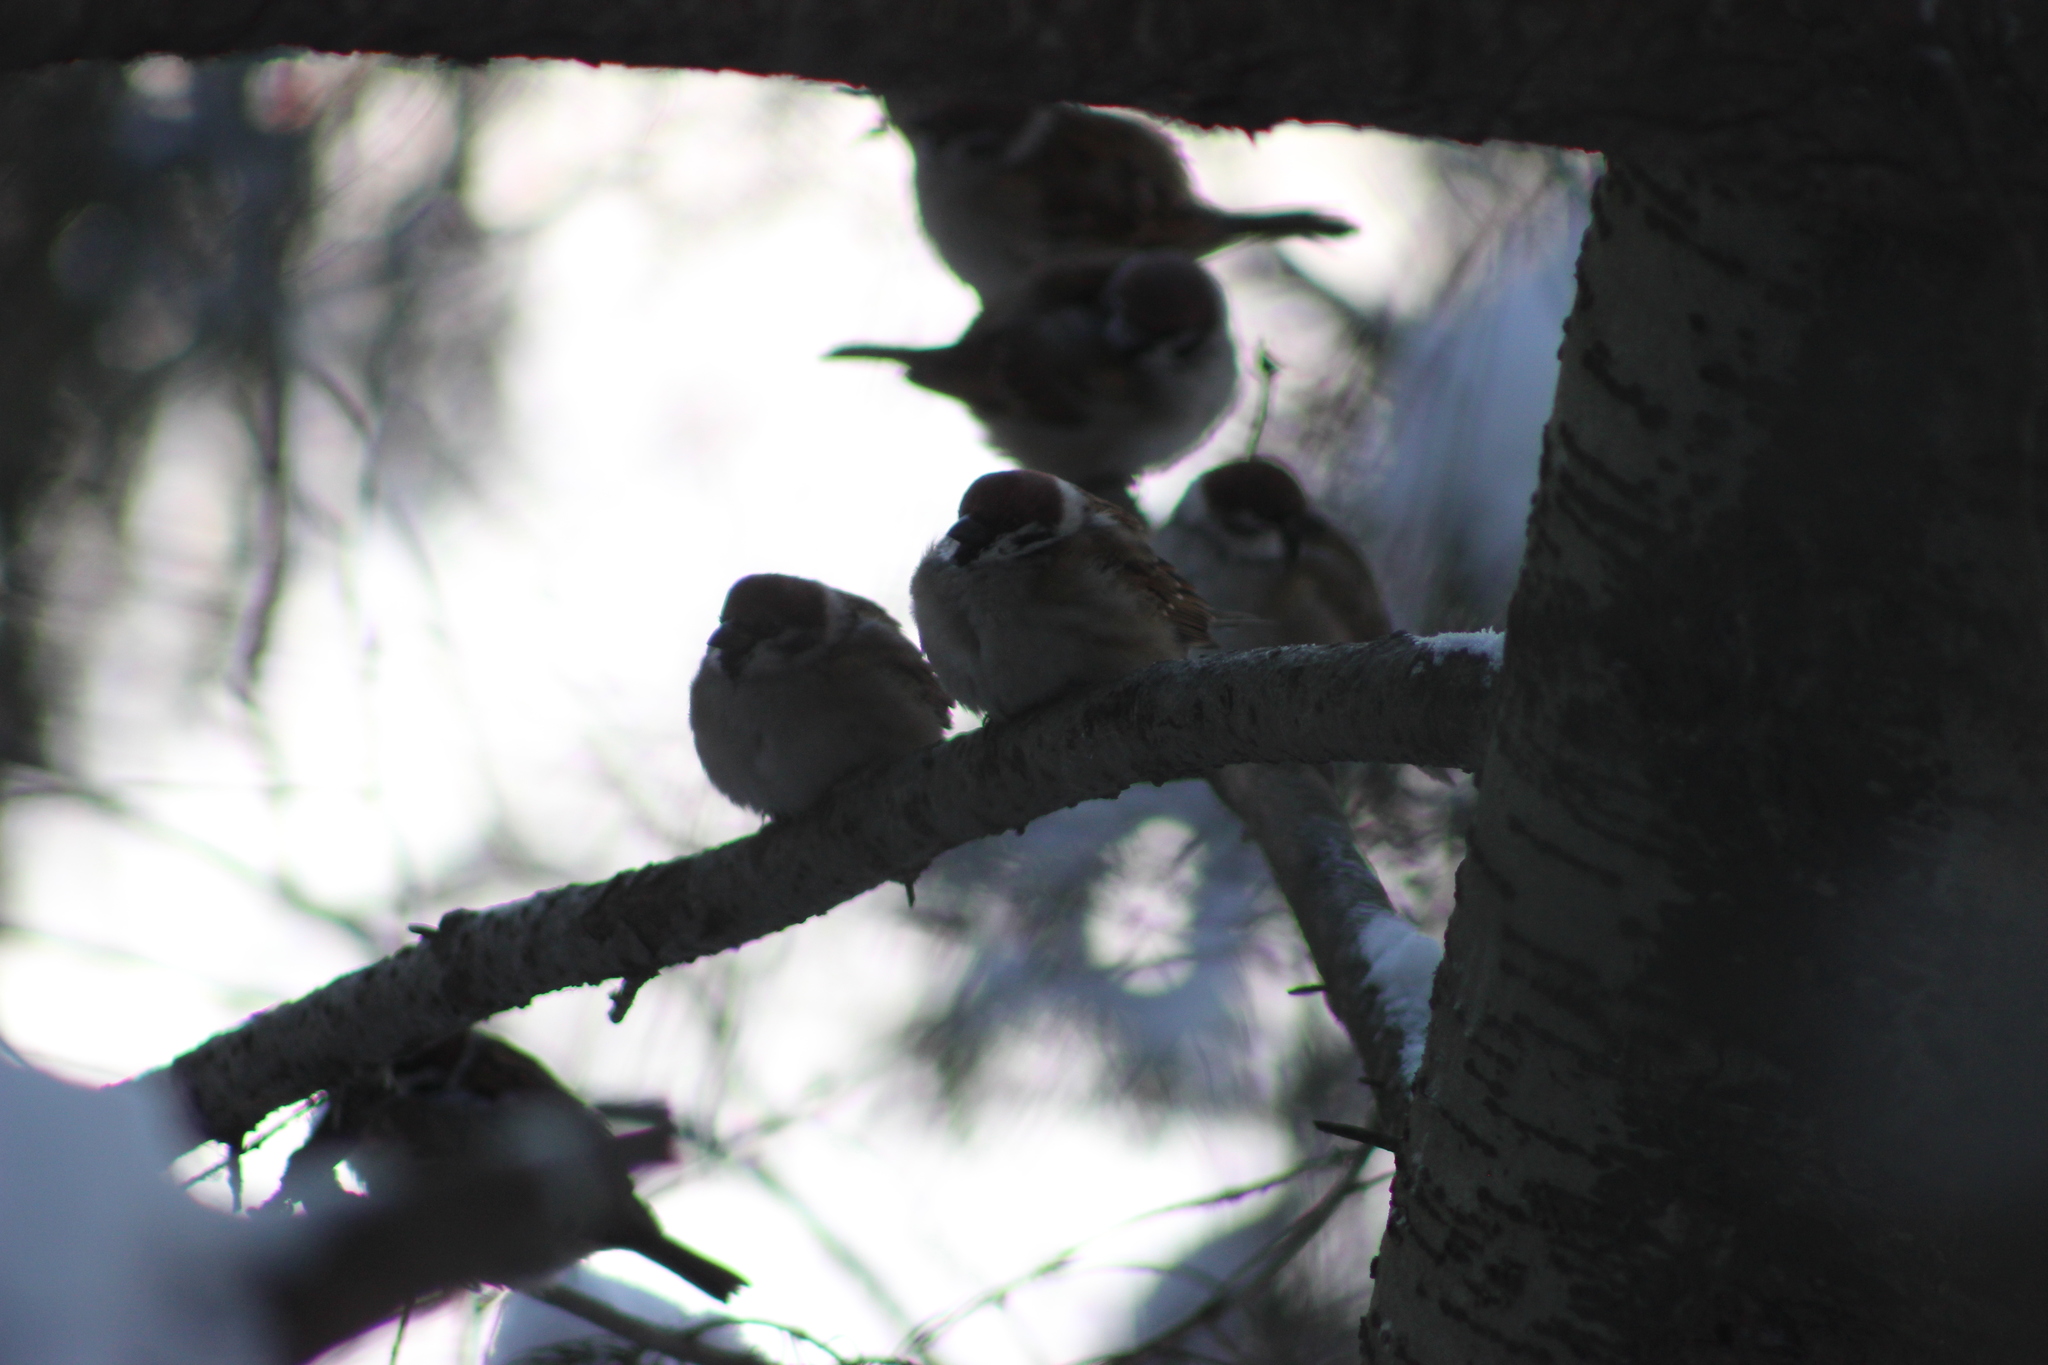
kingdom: Animalia
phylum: Chordata
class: Aves
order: Passeriformes
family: Passeridae
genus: Passer
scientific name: Passer montanus
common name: Eurasian tree sparrow
